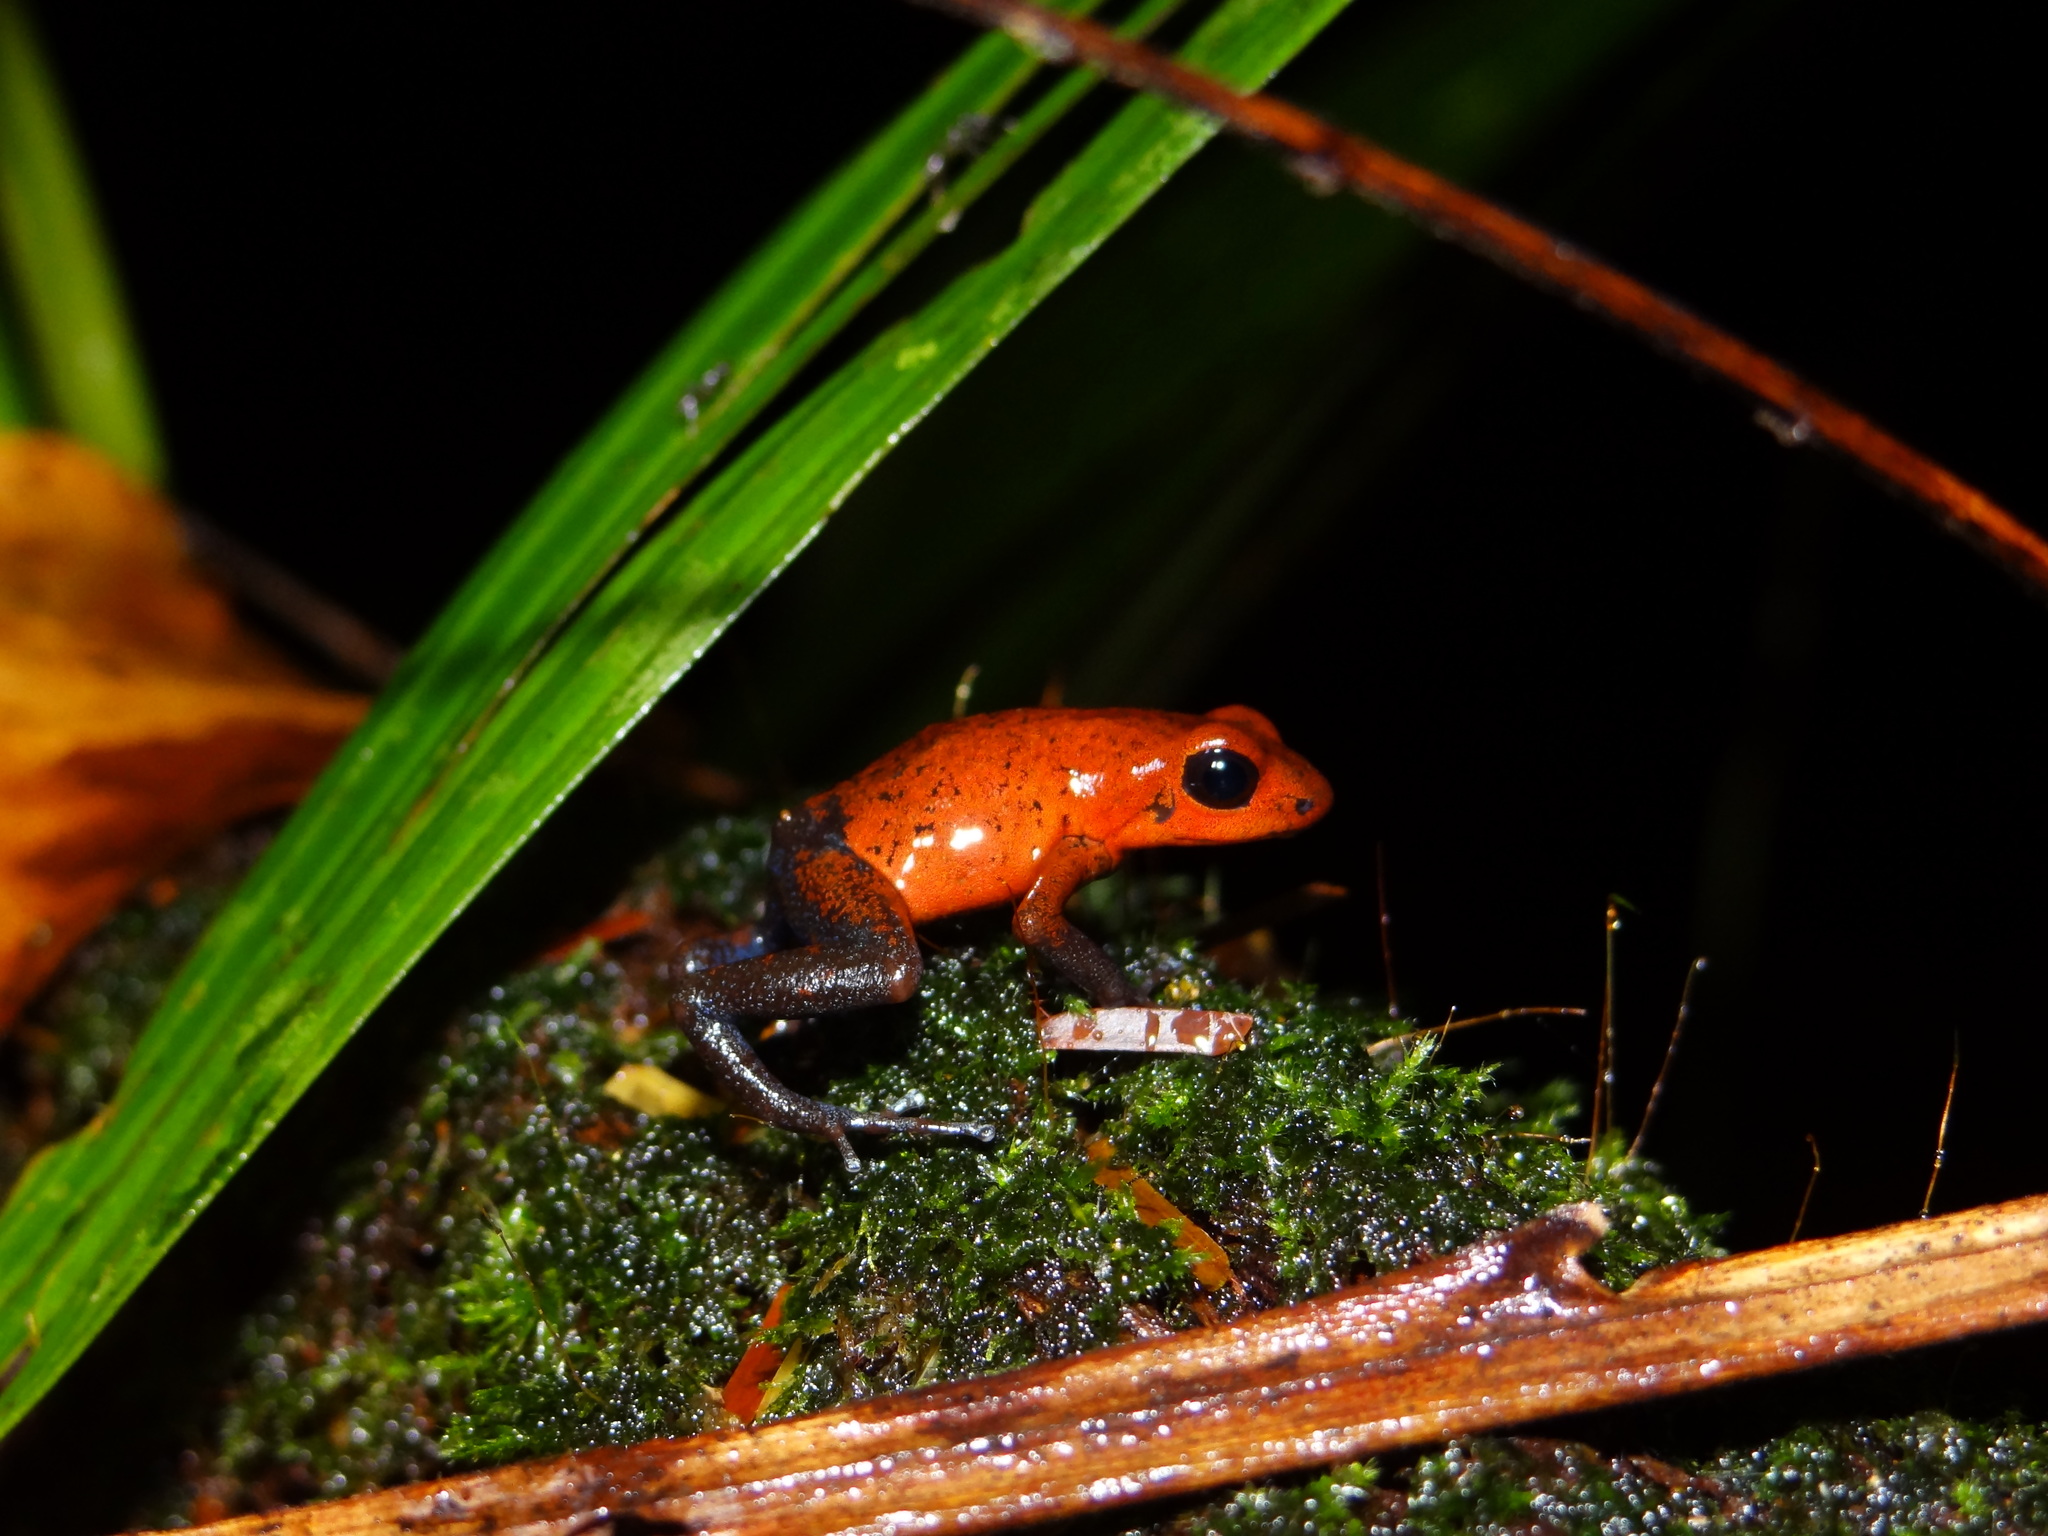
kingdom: Animalia
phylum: Chordata
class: Amphibia
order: Anura
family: Dendrobatidae
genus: Oophaga
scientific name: Oophaga pumilio
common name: Flaming poison frog
